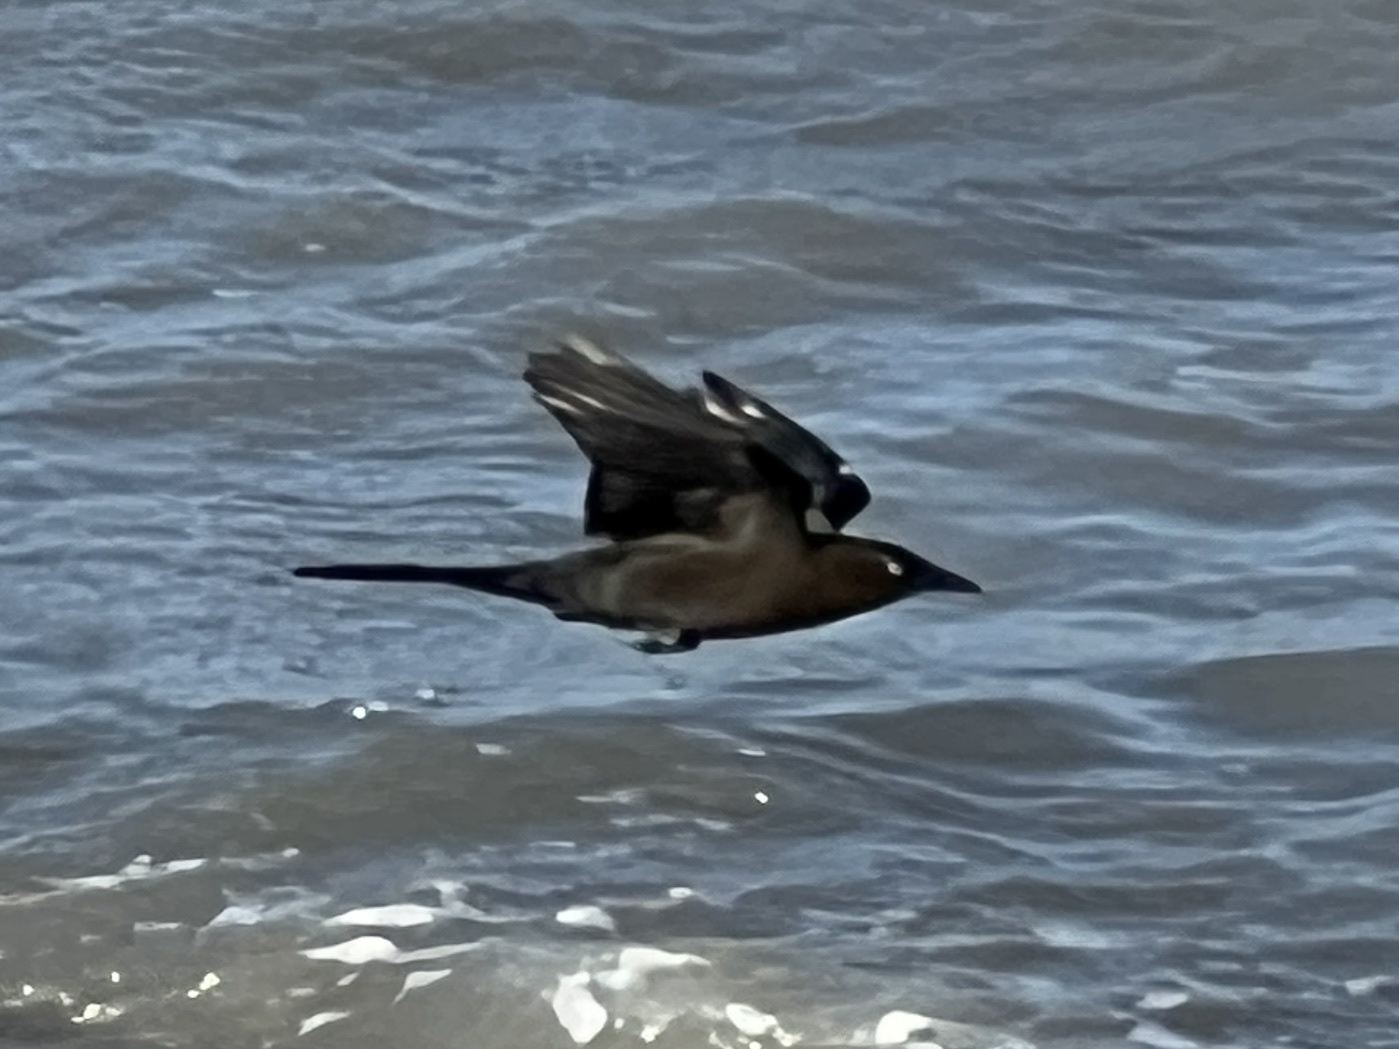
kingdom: Animalia
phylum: Chordata
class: Aves
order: Passeriformes
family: Icteridae
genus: Quiscalus
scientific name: Quiscalus mexicanus
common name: Great-tailed grackle
